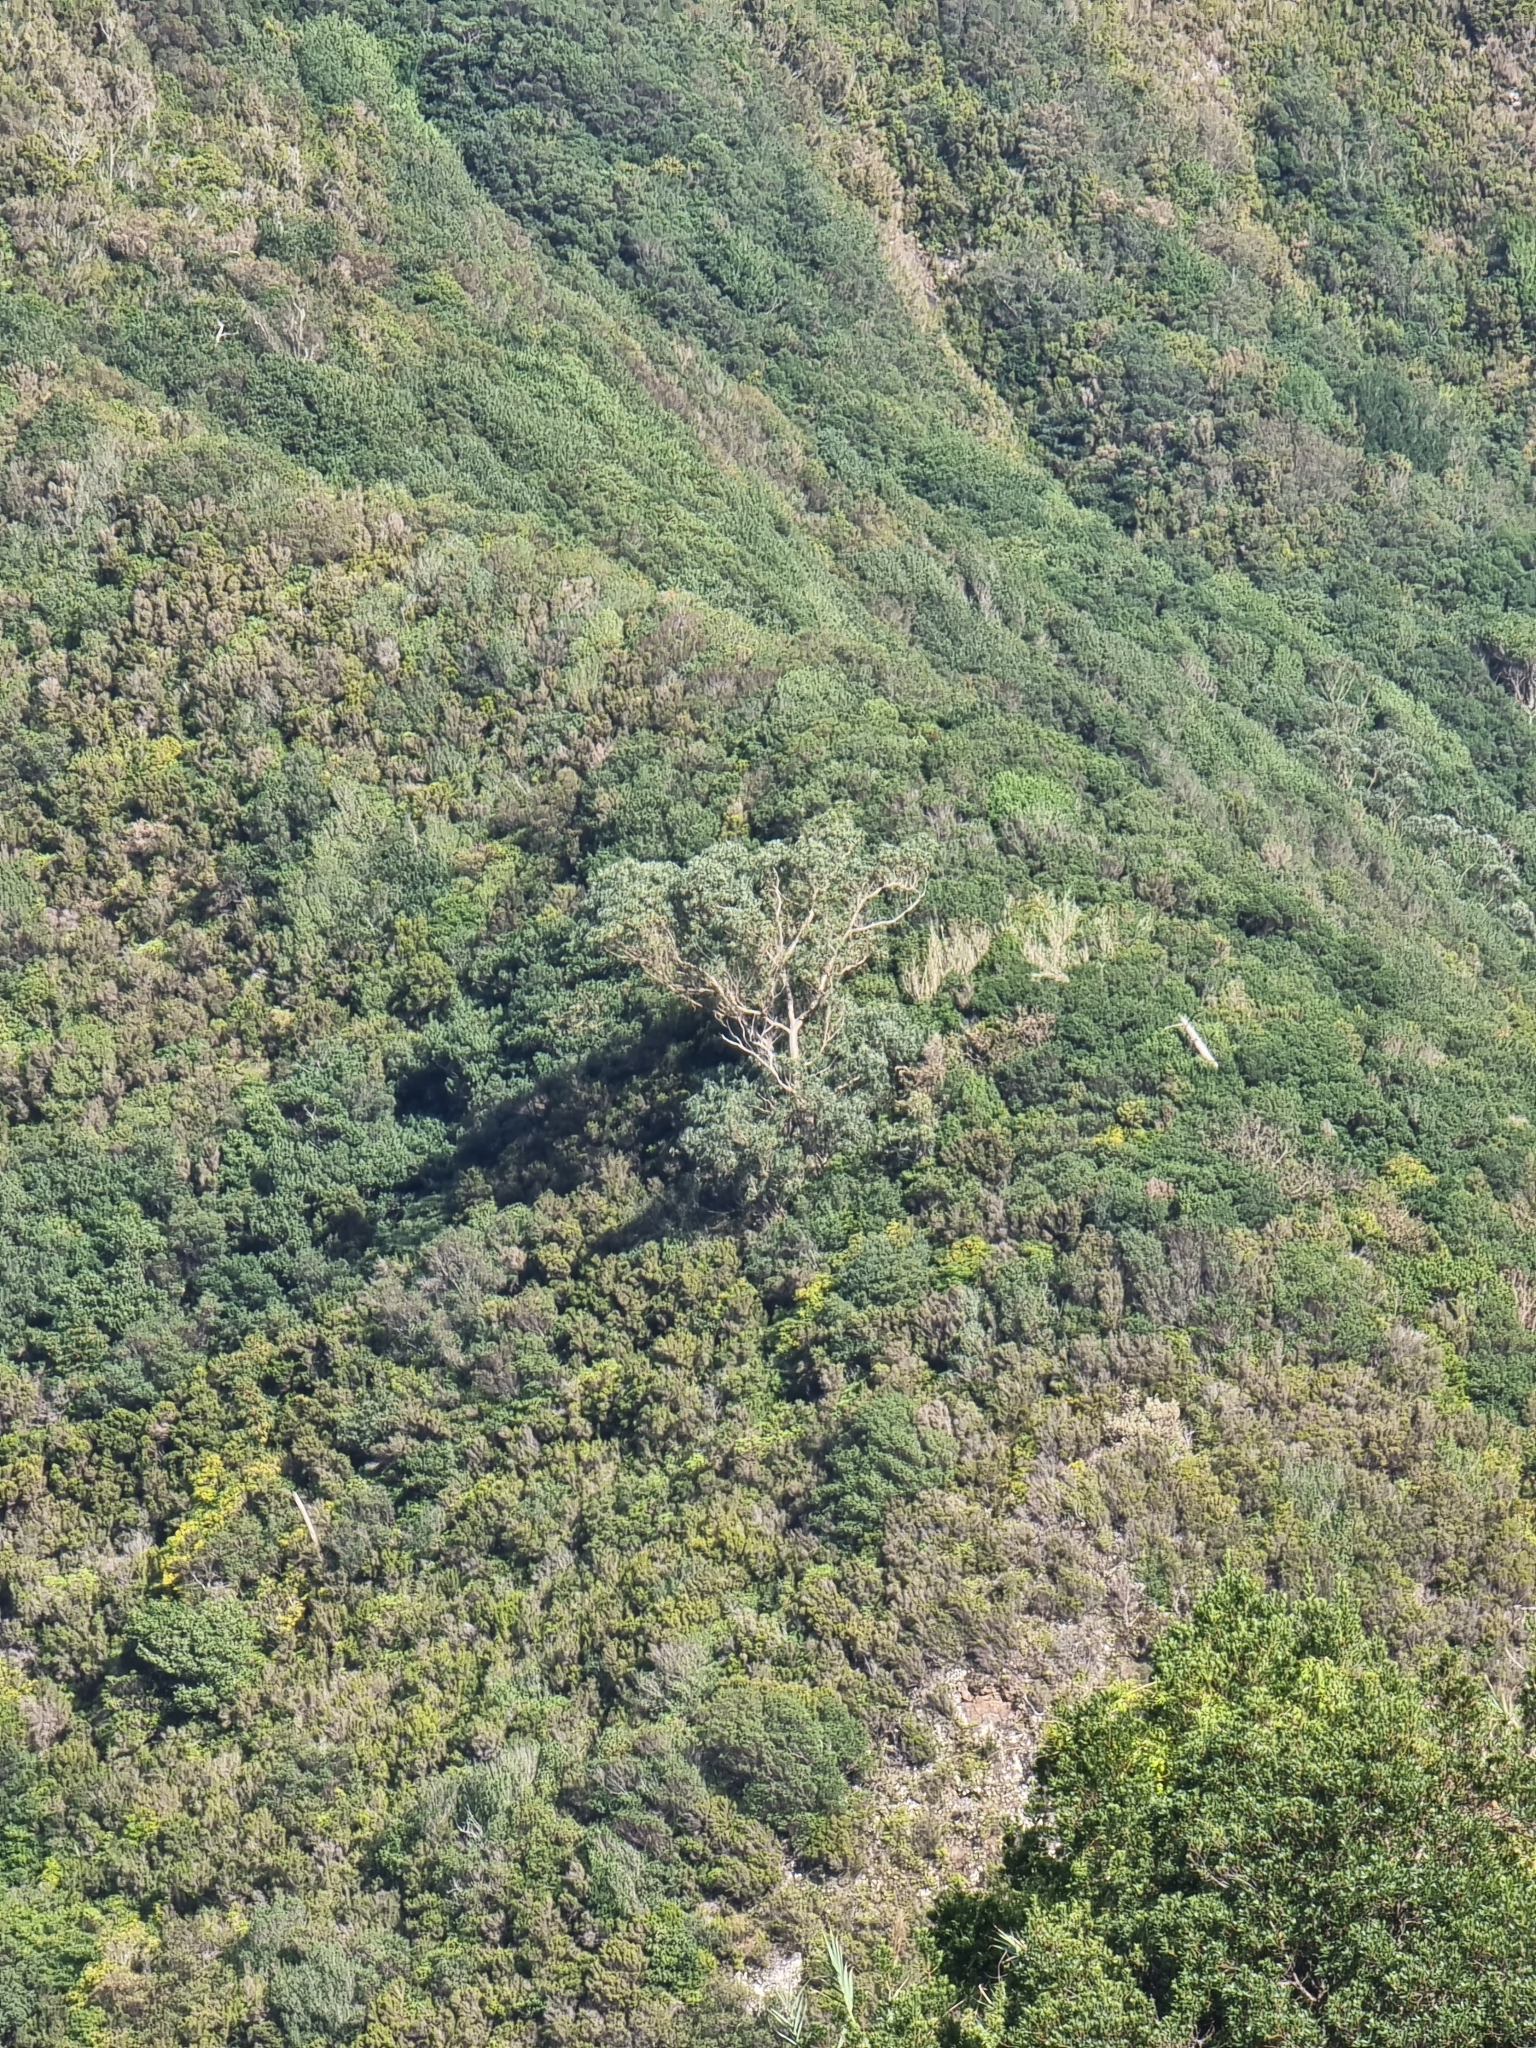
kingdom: Plantae
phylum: Tracheophyta
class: Magnoliopsida
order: Myrtales
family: Myrtaceae
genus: Eucalyptus
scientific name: Eucalyptus globulus
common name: Southern blue-gum
